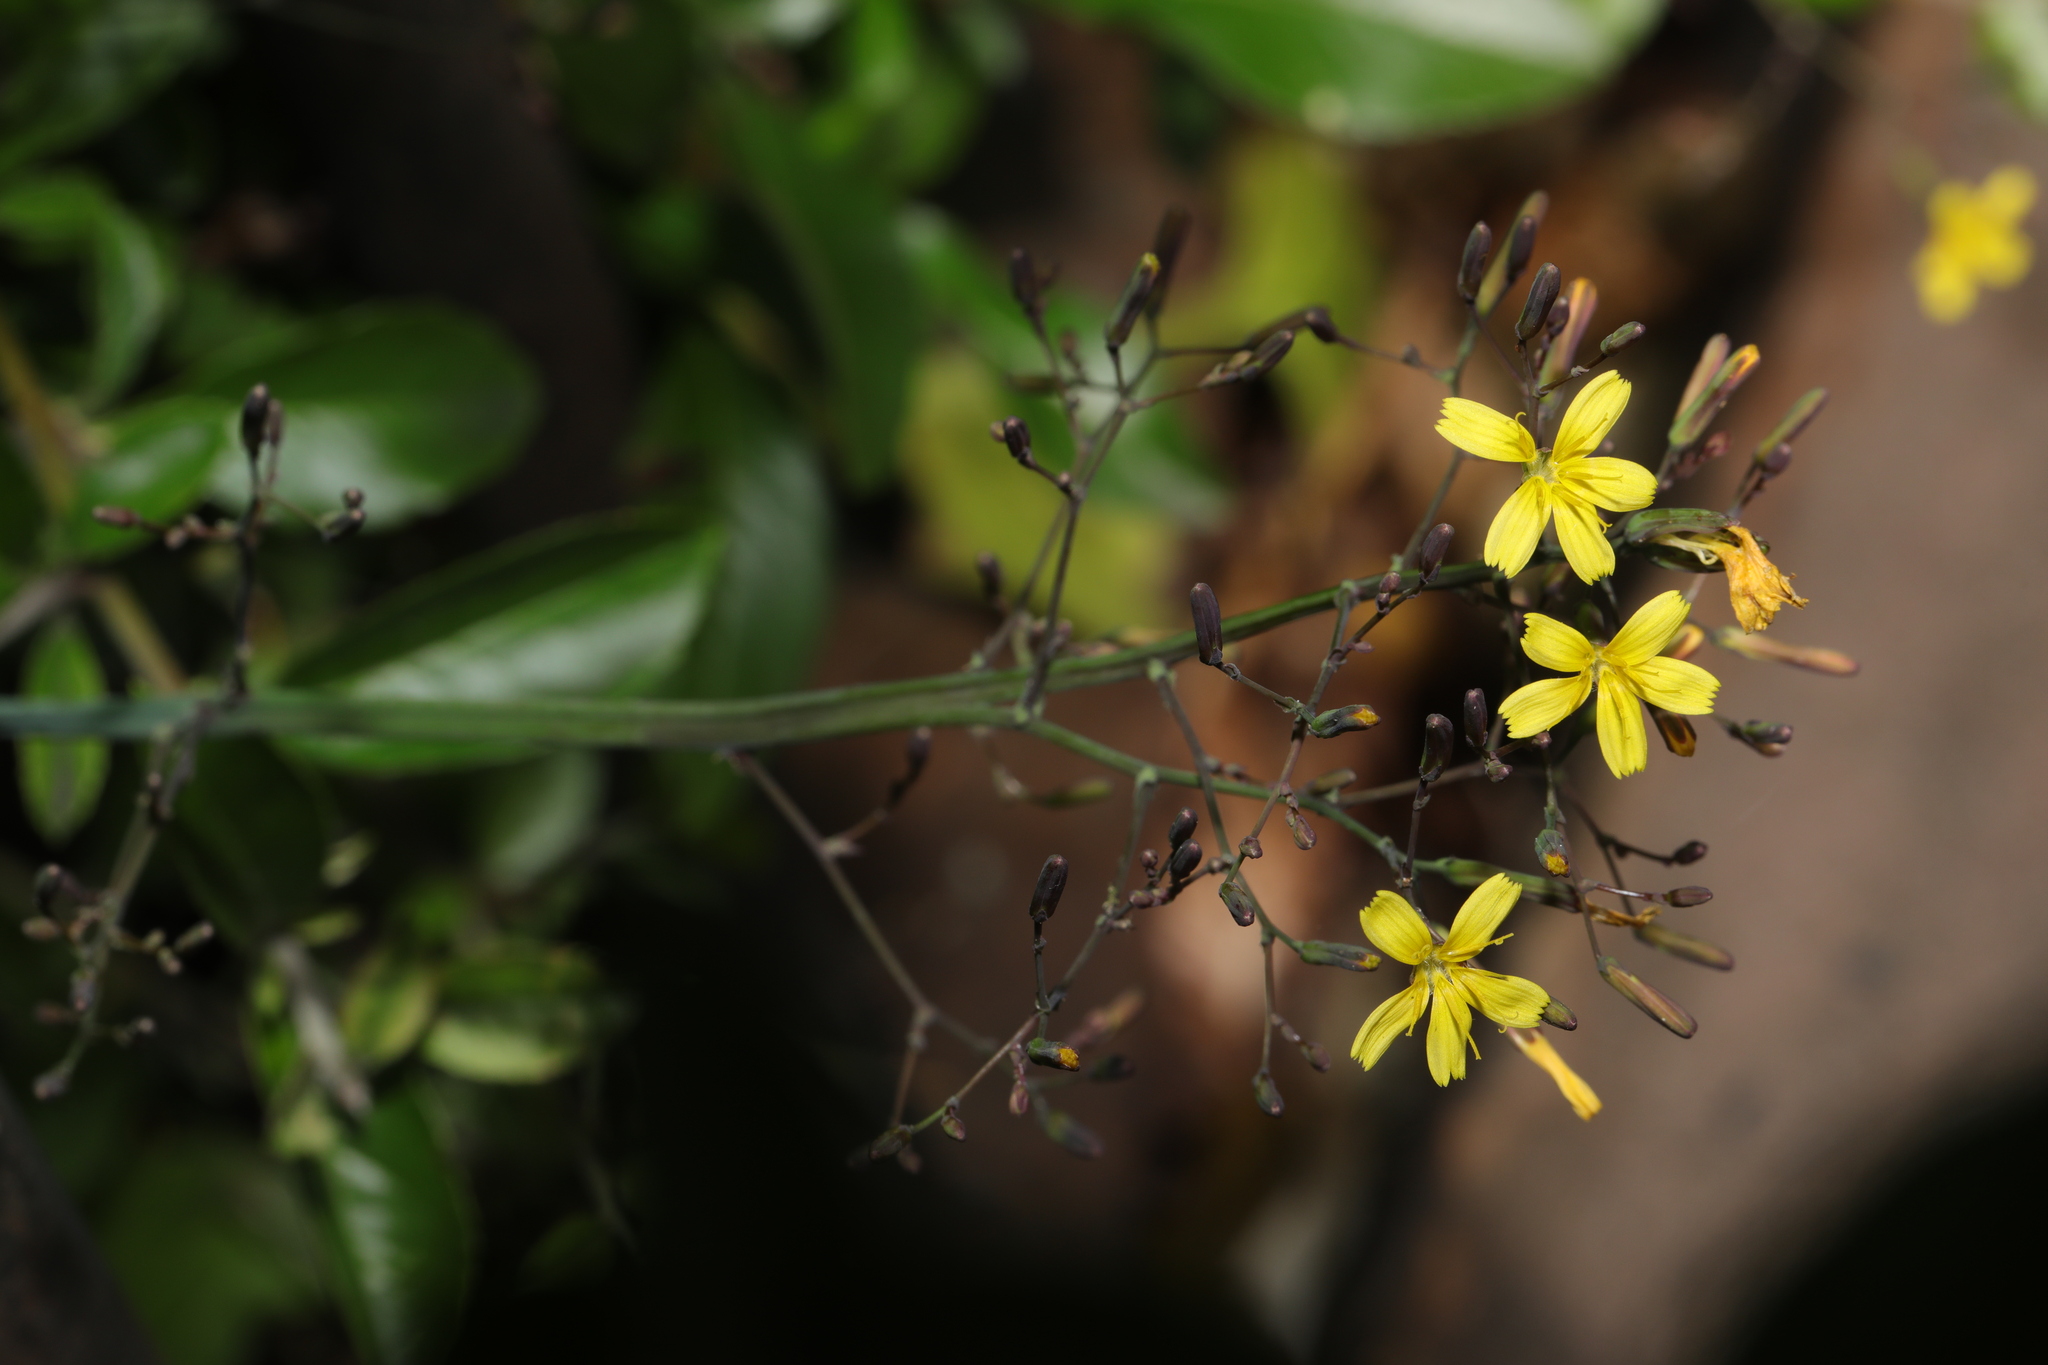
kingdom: Plantae
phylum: Tracheophyta
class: Magnoliopsida
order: Asterales
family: Asteraceae
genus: Mycelis
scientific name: Mycelis muralis
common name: Wall lettuce
